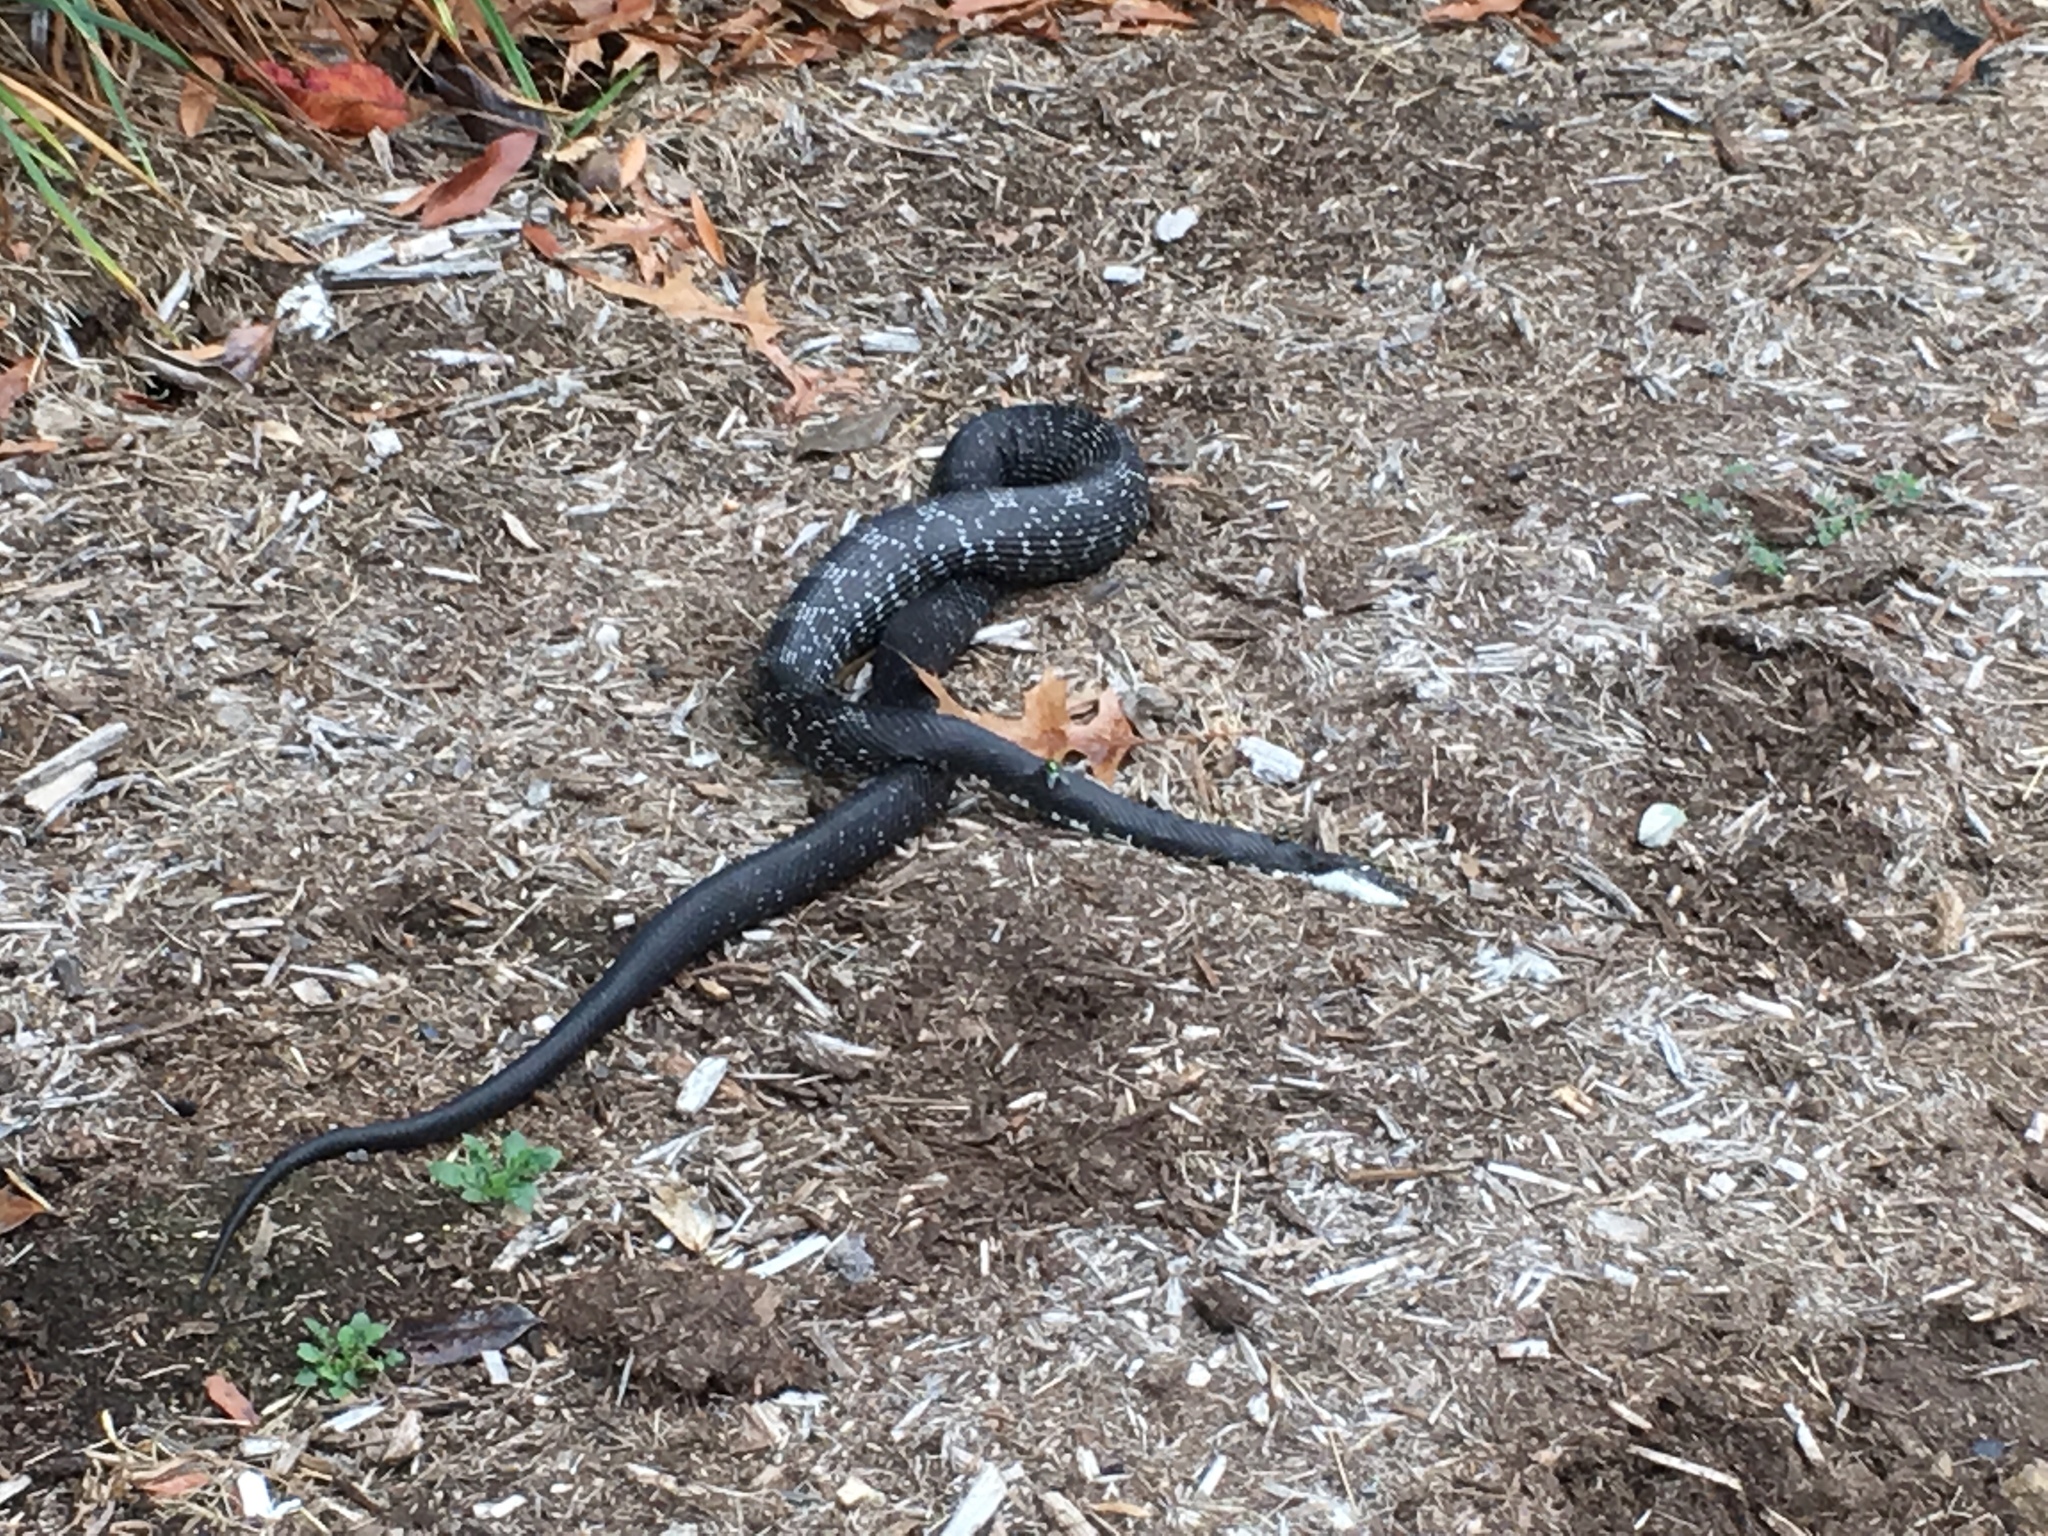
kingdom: Animalia
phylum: Chordata
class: Squamata
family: Colubridae
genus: Pantherophis
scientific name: Pantherophis alleghaniensis
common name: Eastern rat snake
